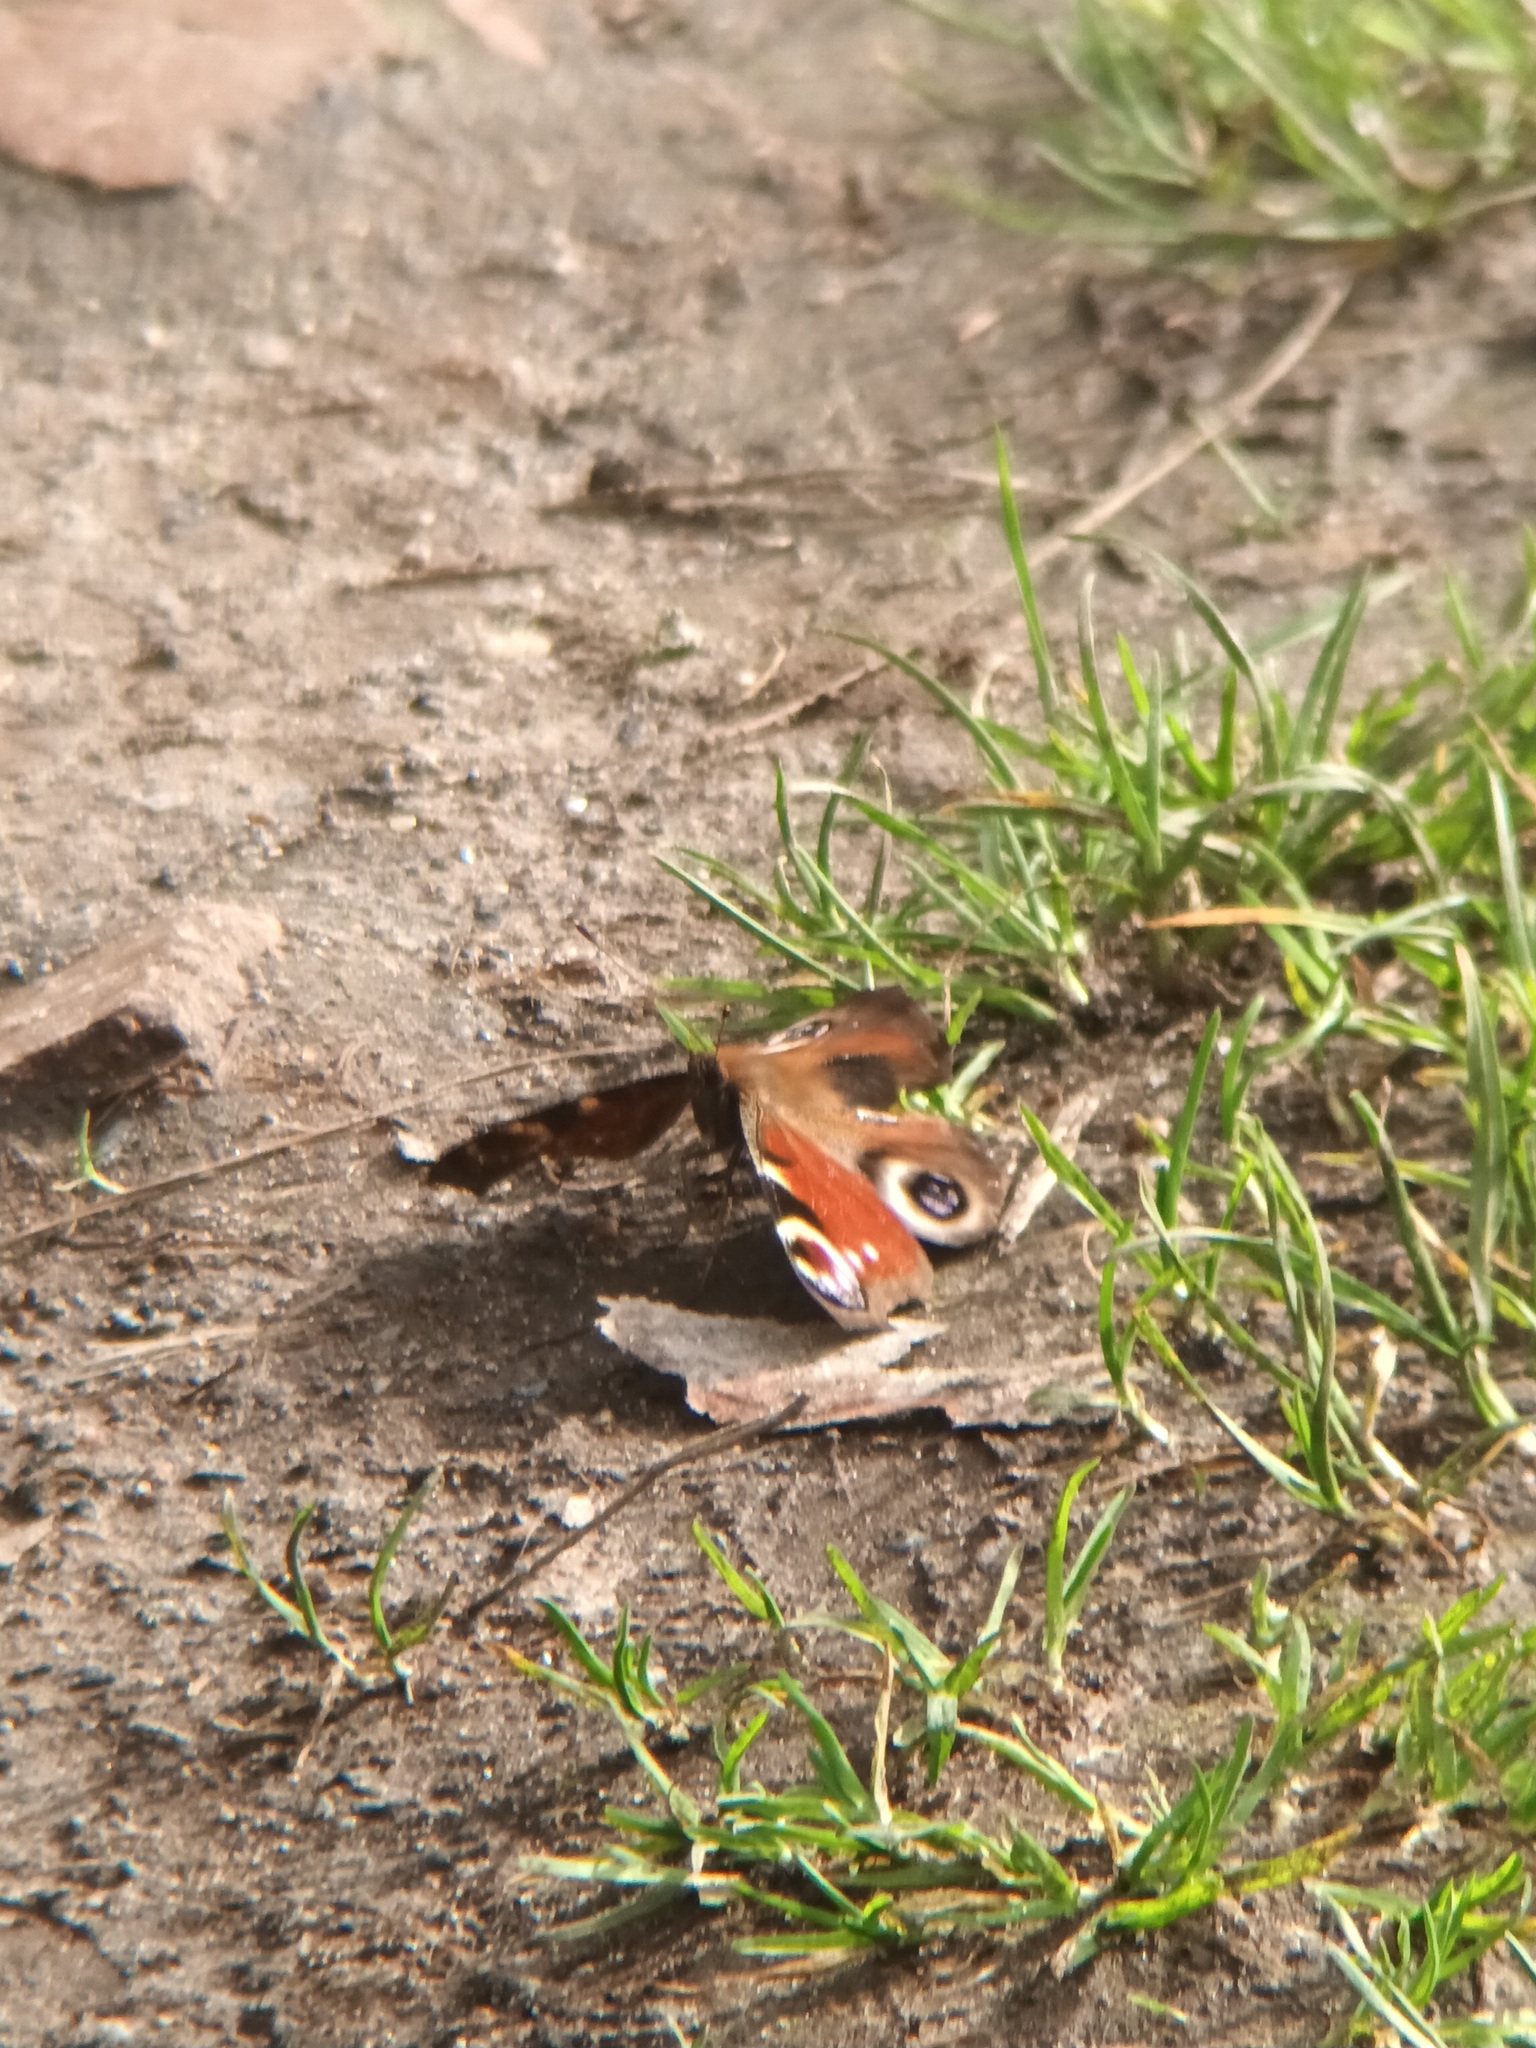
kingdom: Animalia
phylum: Arthropoda
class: Insecta
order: Lepidoptera
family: Nymphalidae
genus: Aglais
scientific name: Aglais io
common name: Peacock
